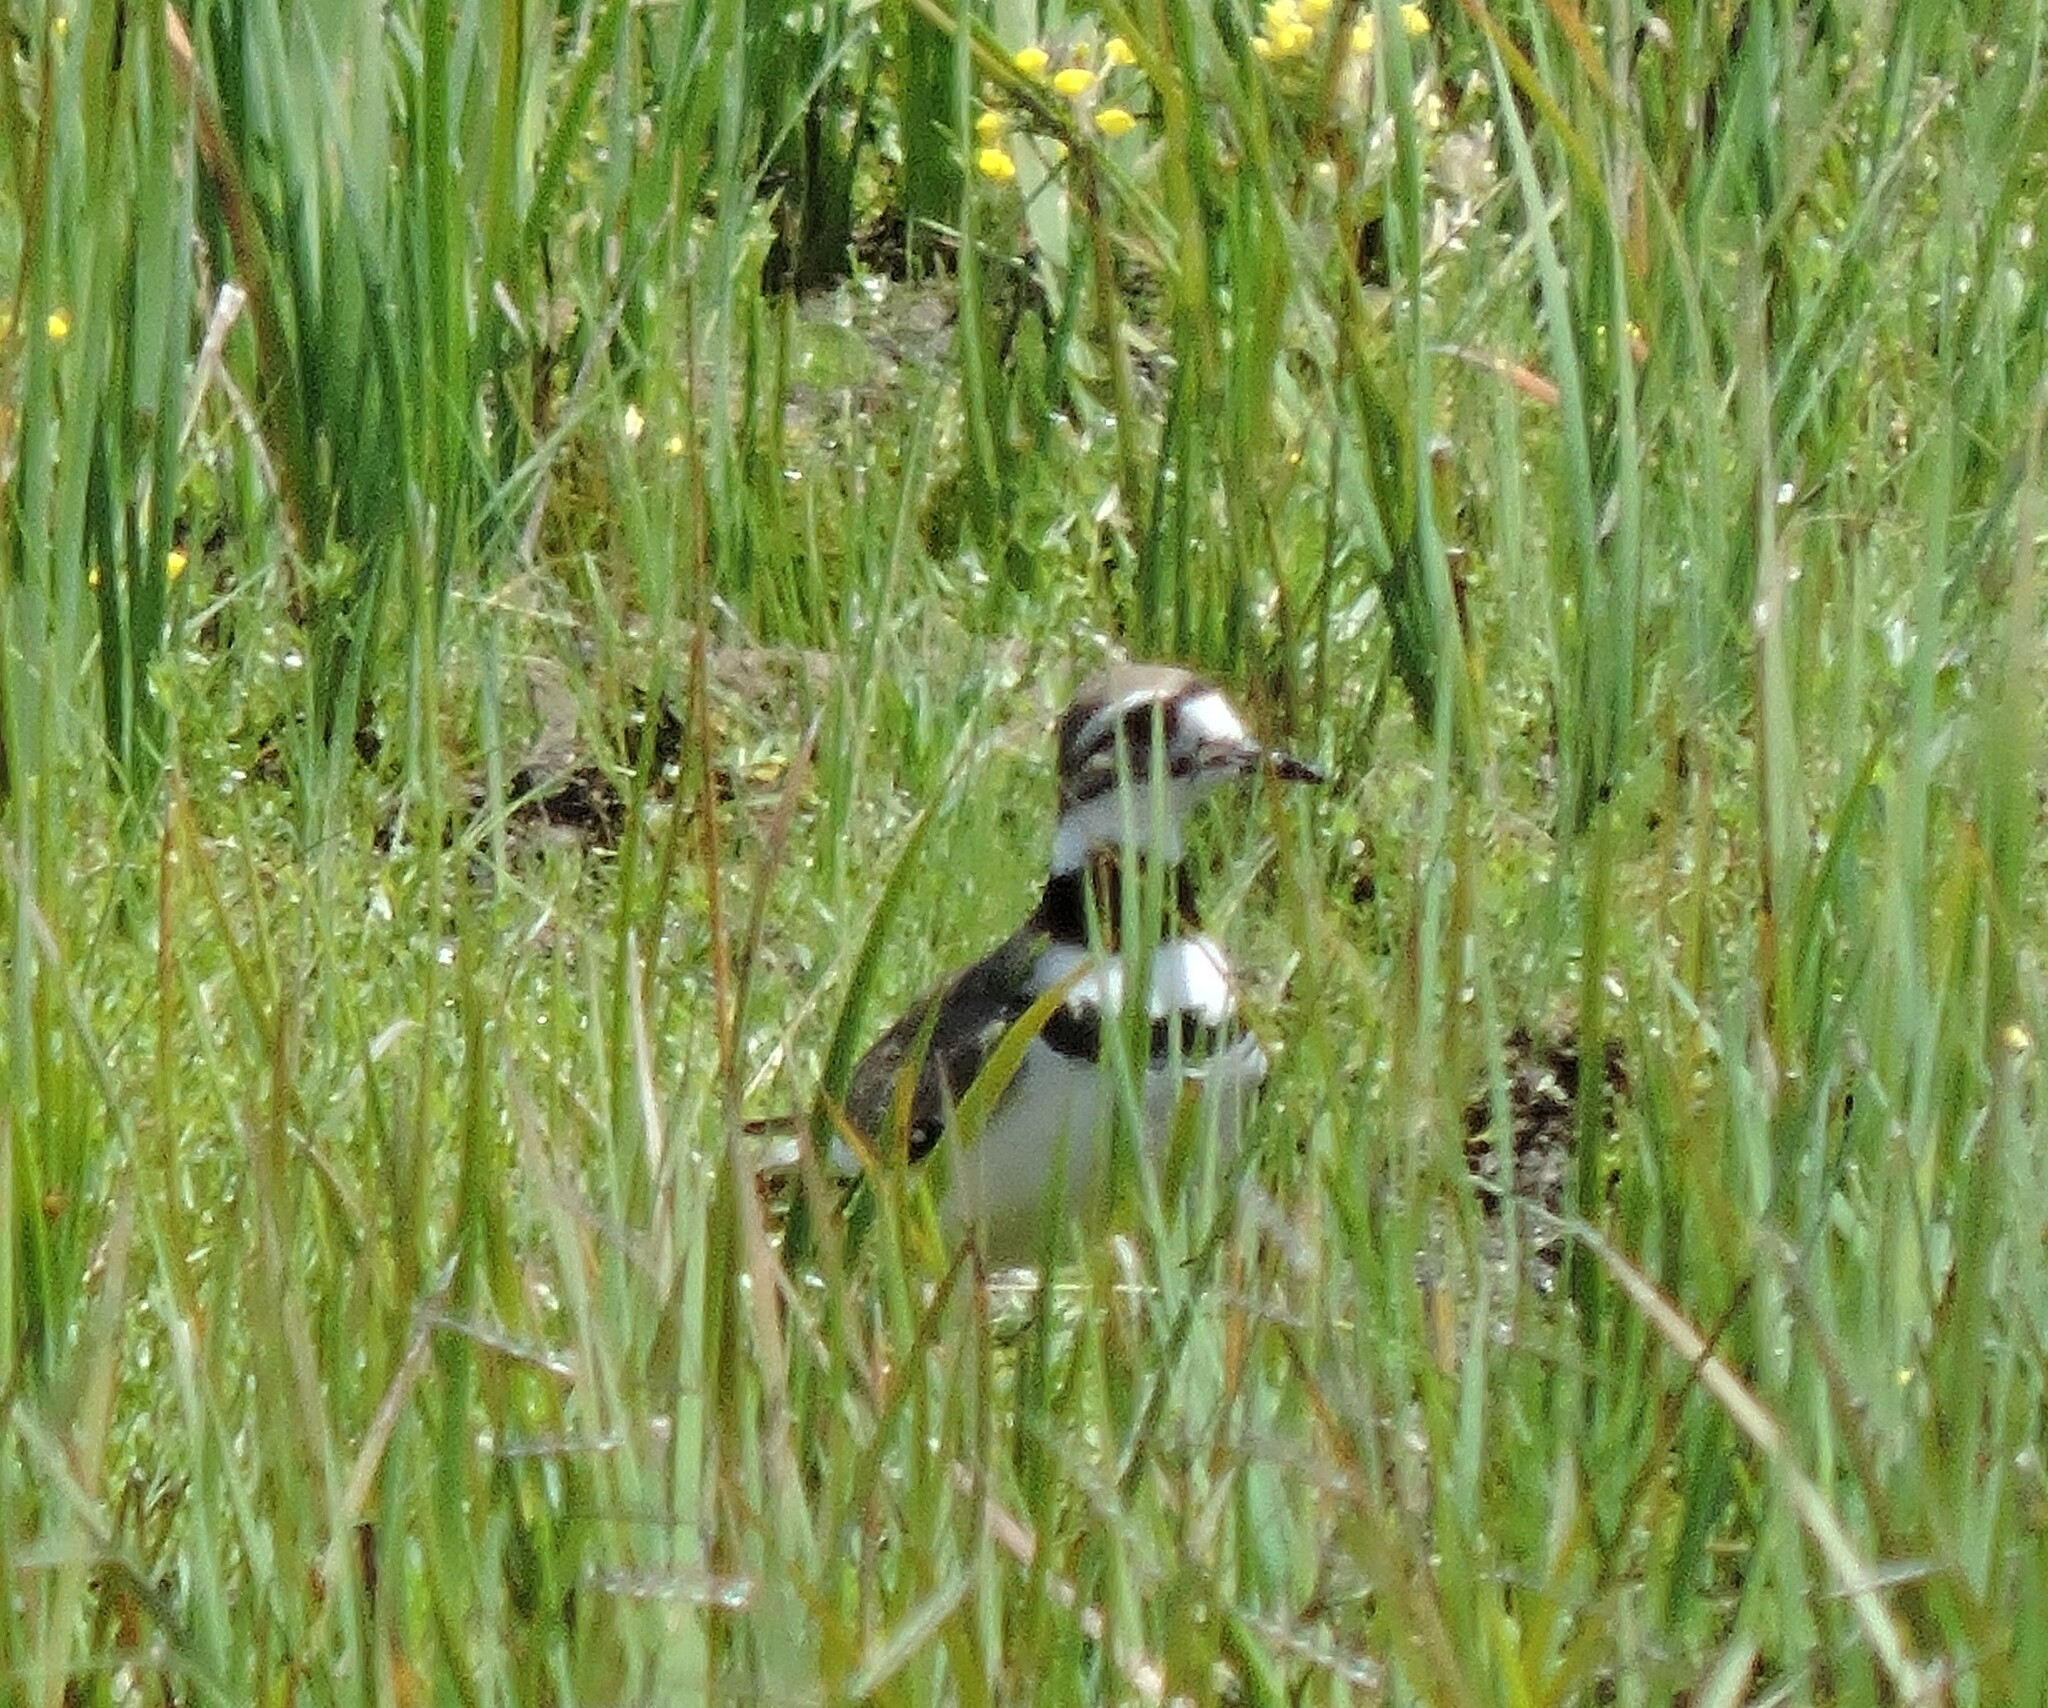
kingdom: Animalia
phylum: Chordata
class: Aves
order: Charadriiformes
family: Charadriidae
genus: Charadrius
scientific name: Charadrius vociferus
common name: Killdeer
